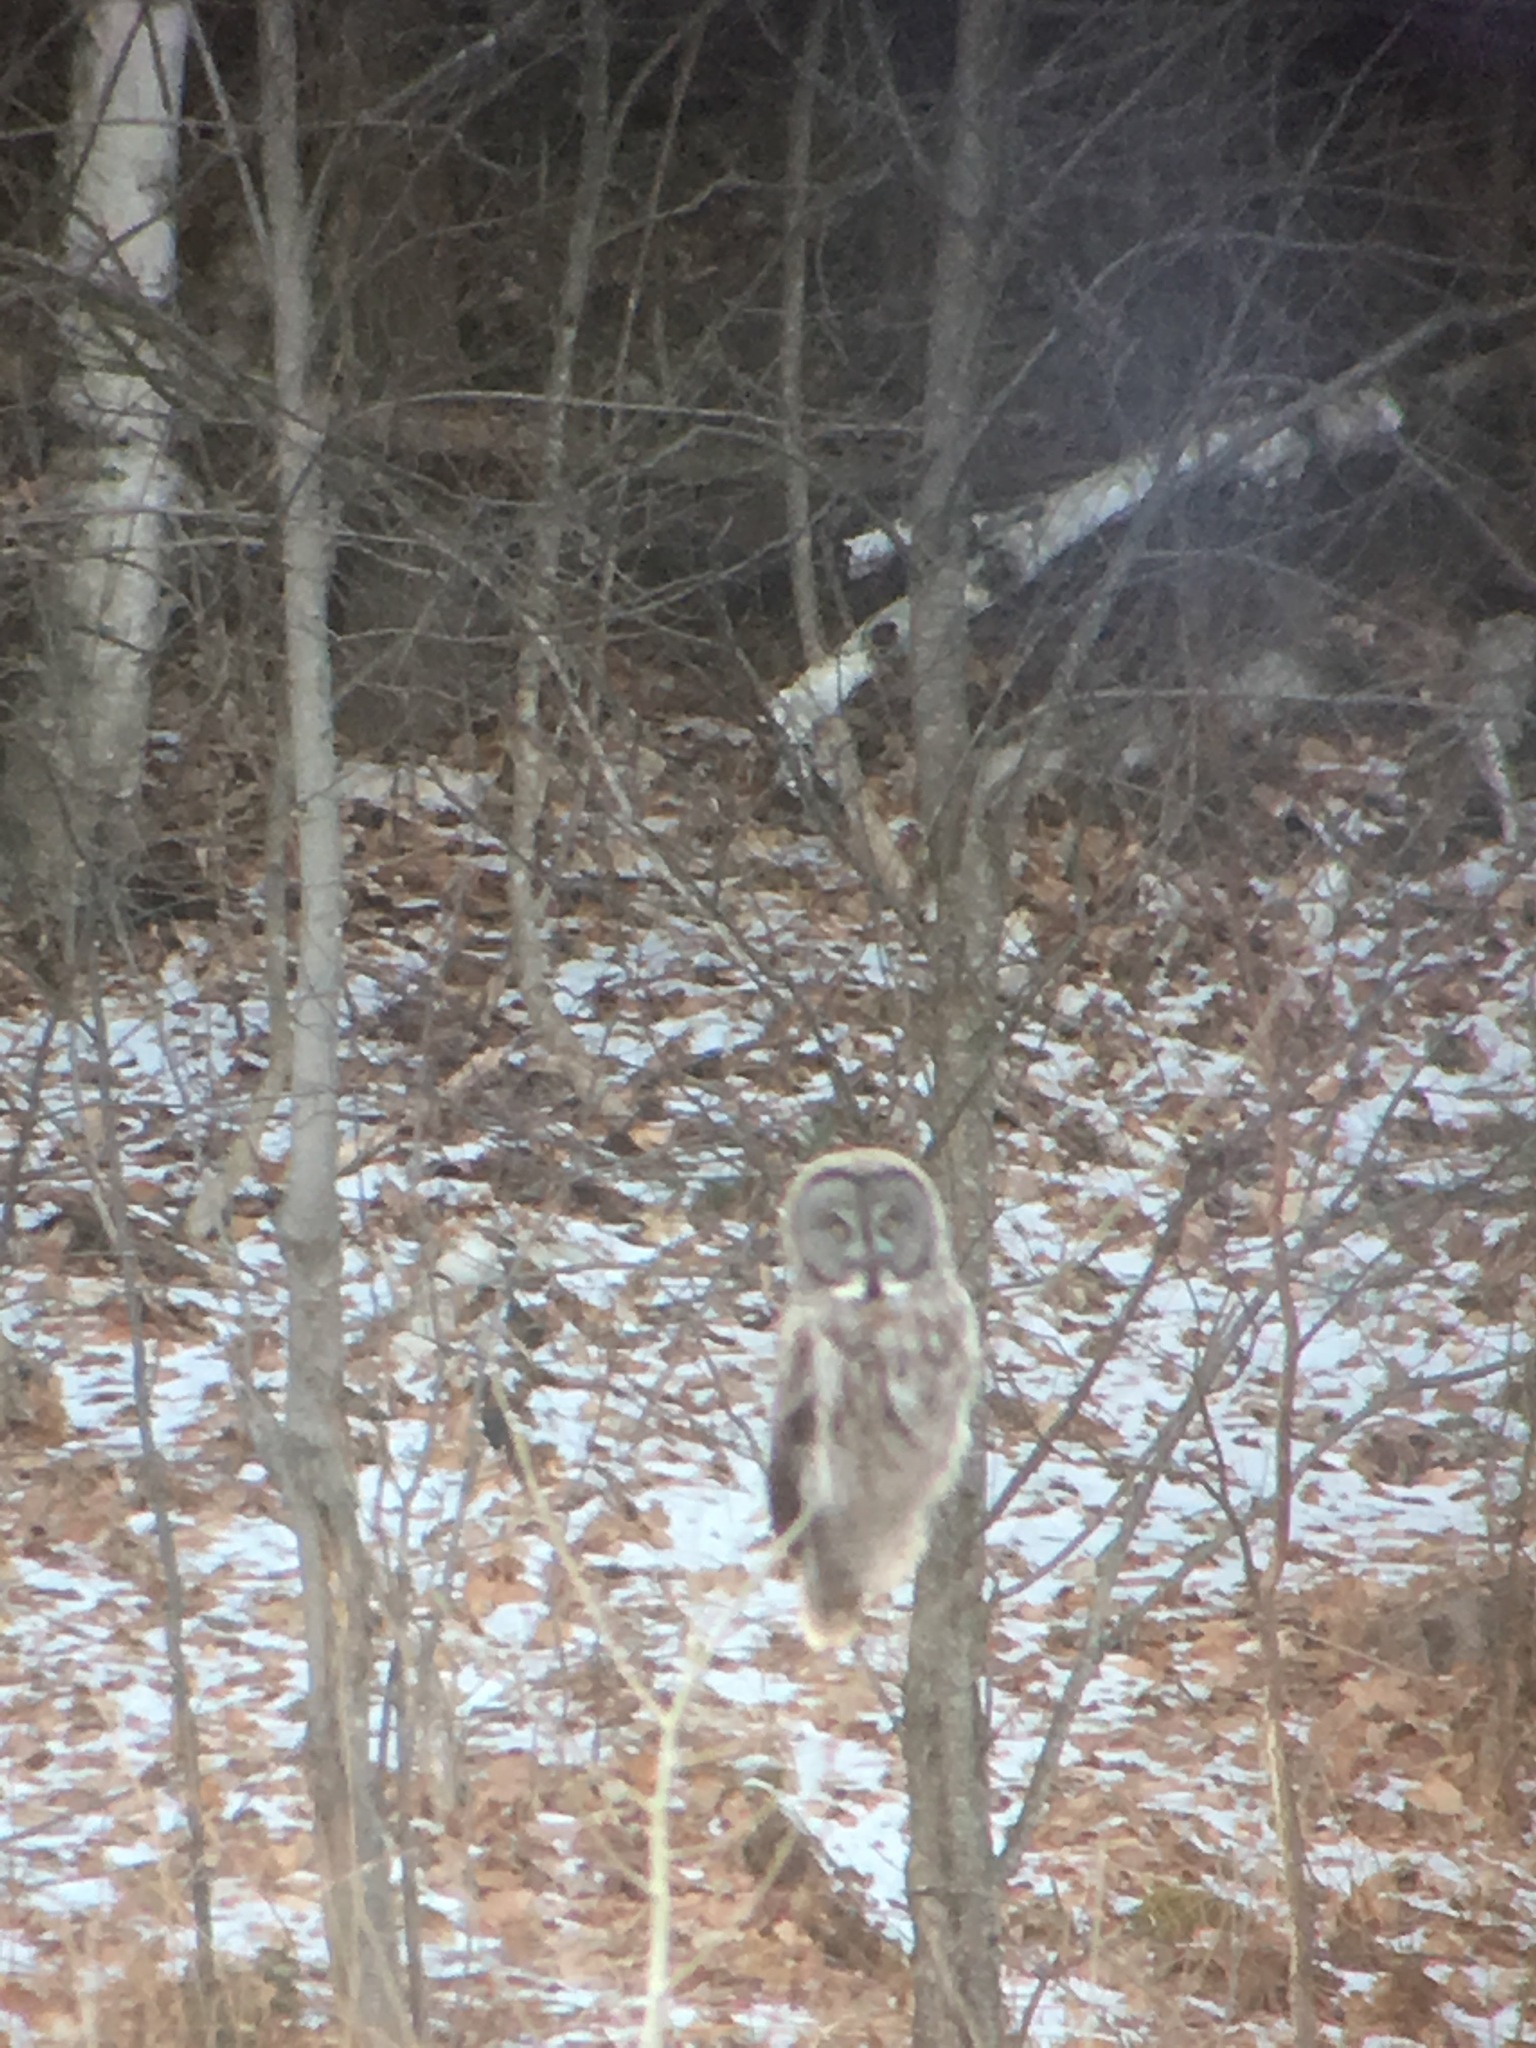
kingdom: Animalia
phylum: Chordata
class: Aves
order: Strigiformes
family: Strigidae
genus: Strix
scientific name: Strix nebulosa
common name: Great grey owl
